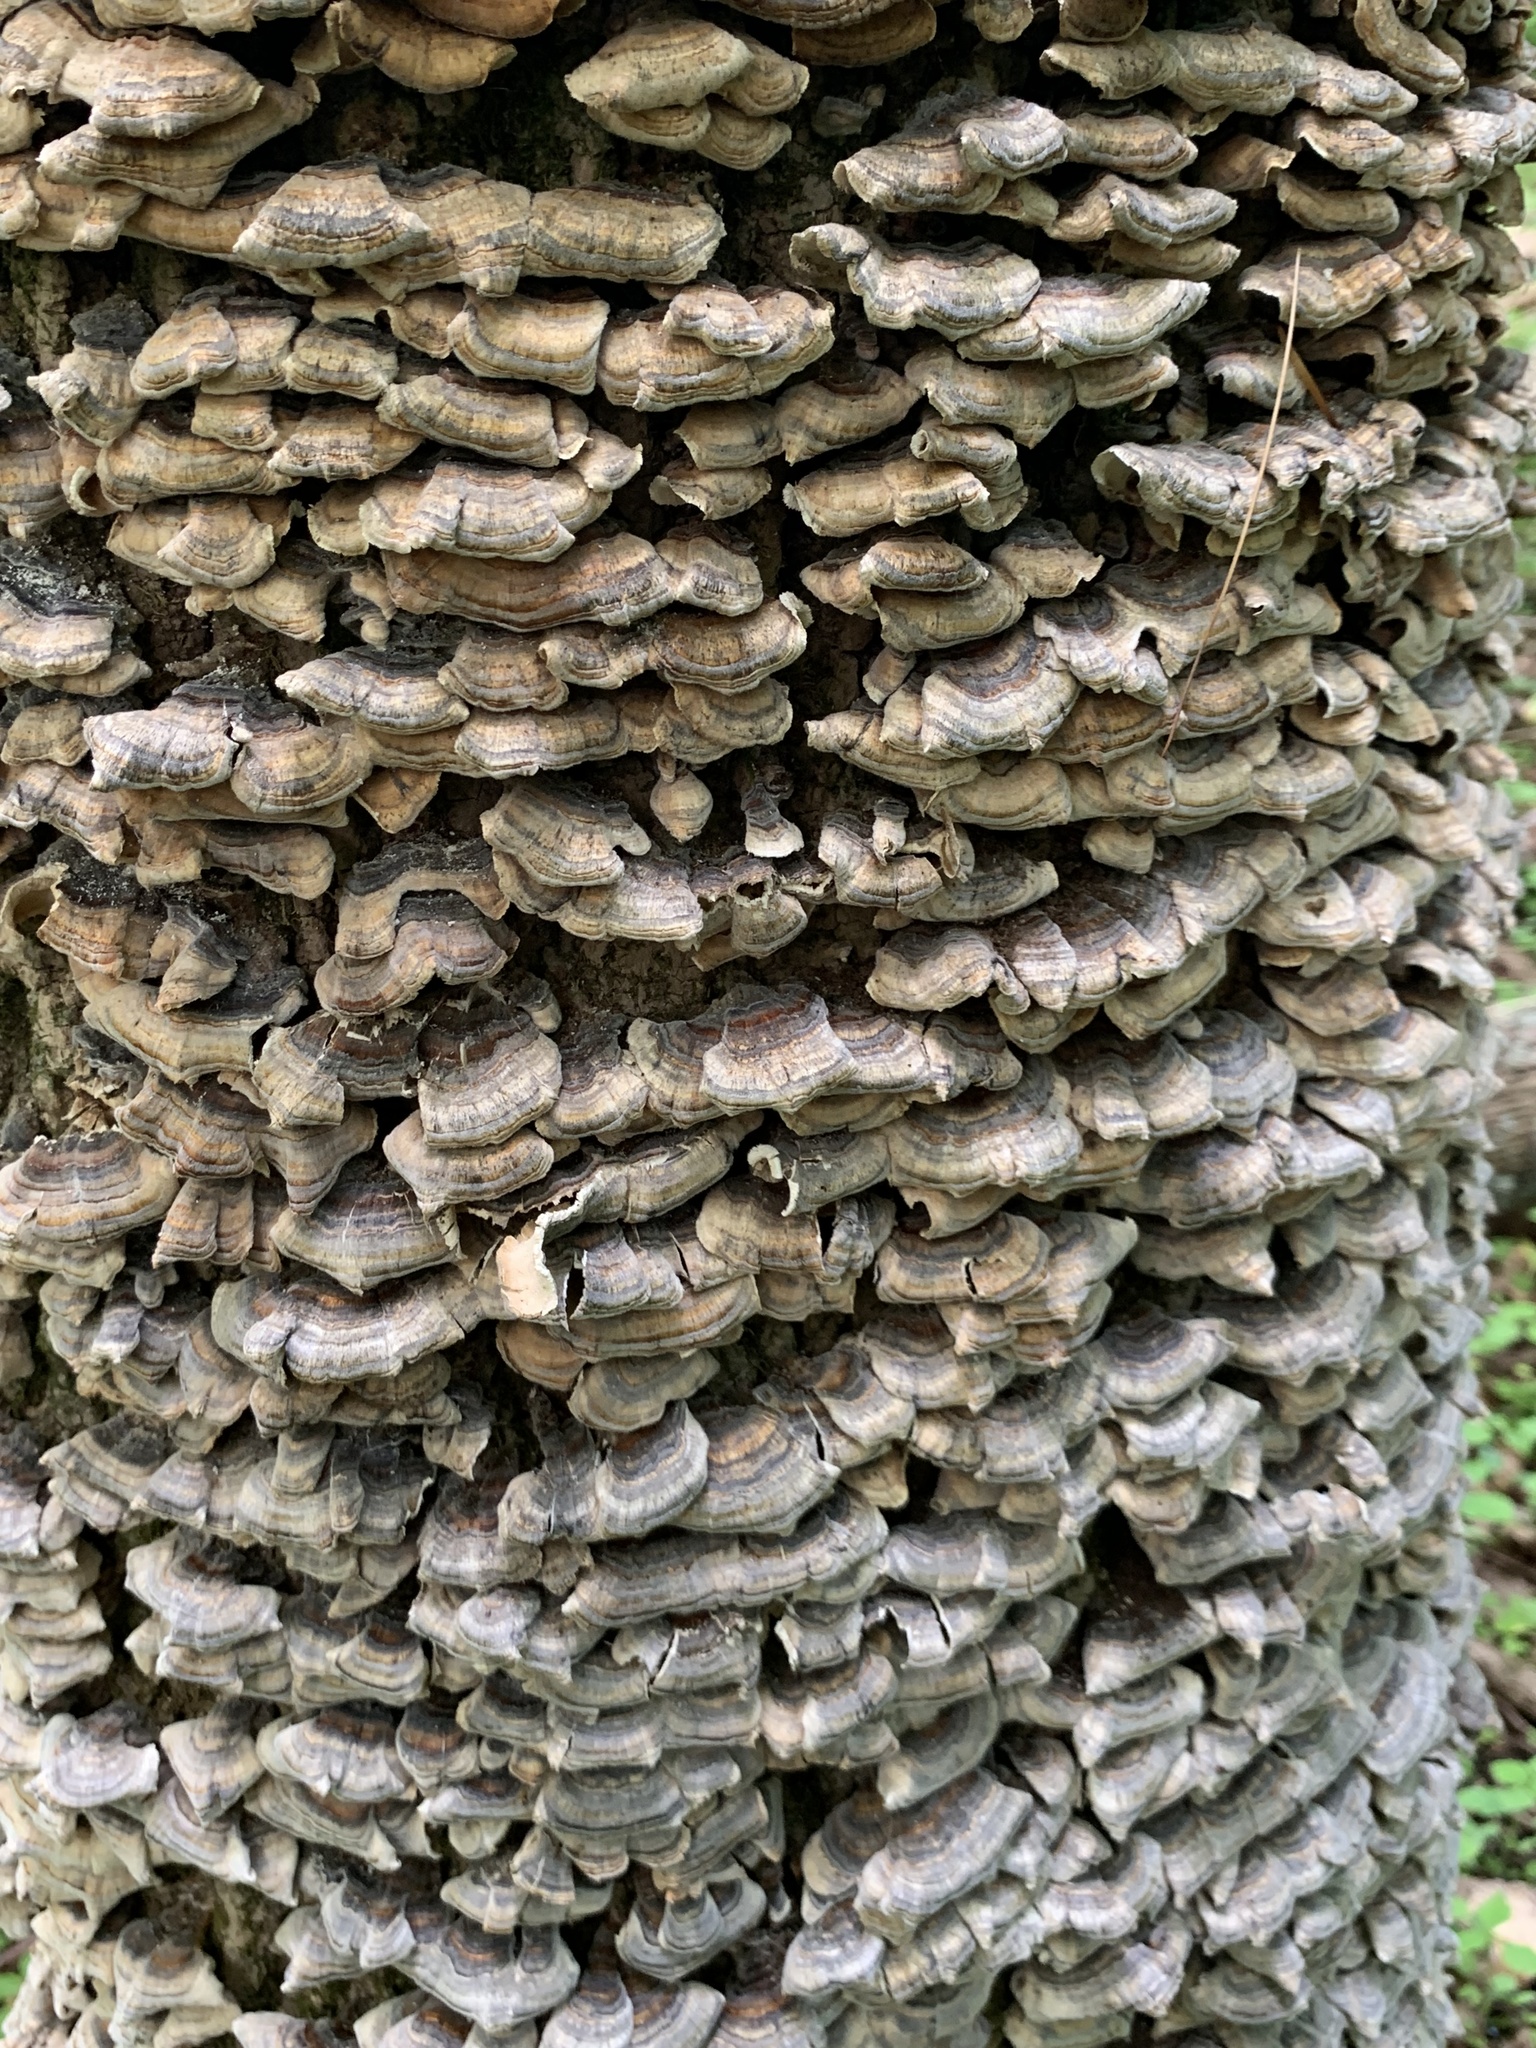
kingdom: Fungi
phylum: Basidiomycota
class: Agaricomycetes
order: Polyporales
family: Polyporaceae
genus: Trametes
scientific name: Trametes versicolor
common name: Turkeytail
